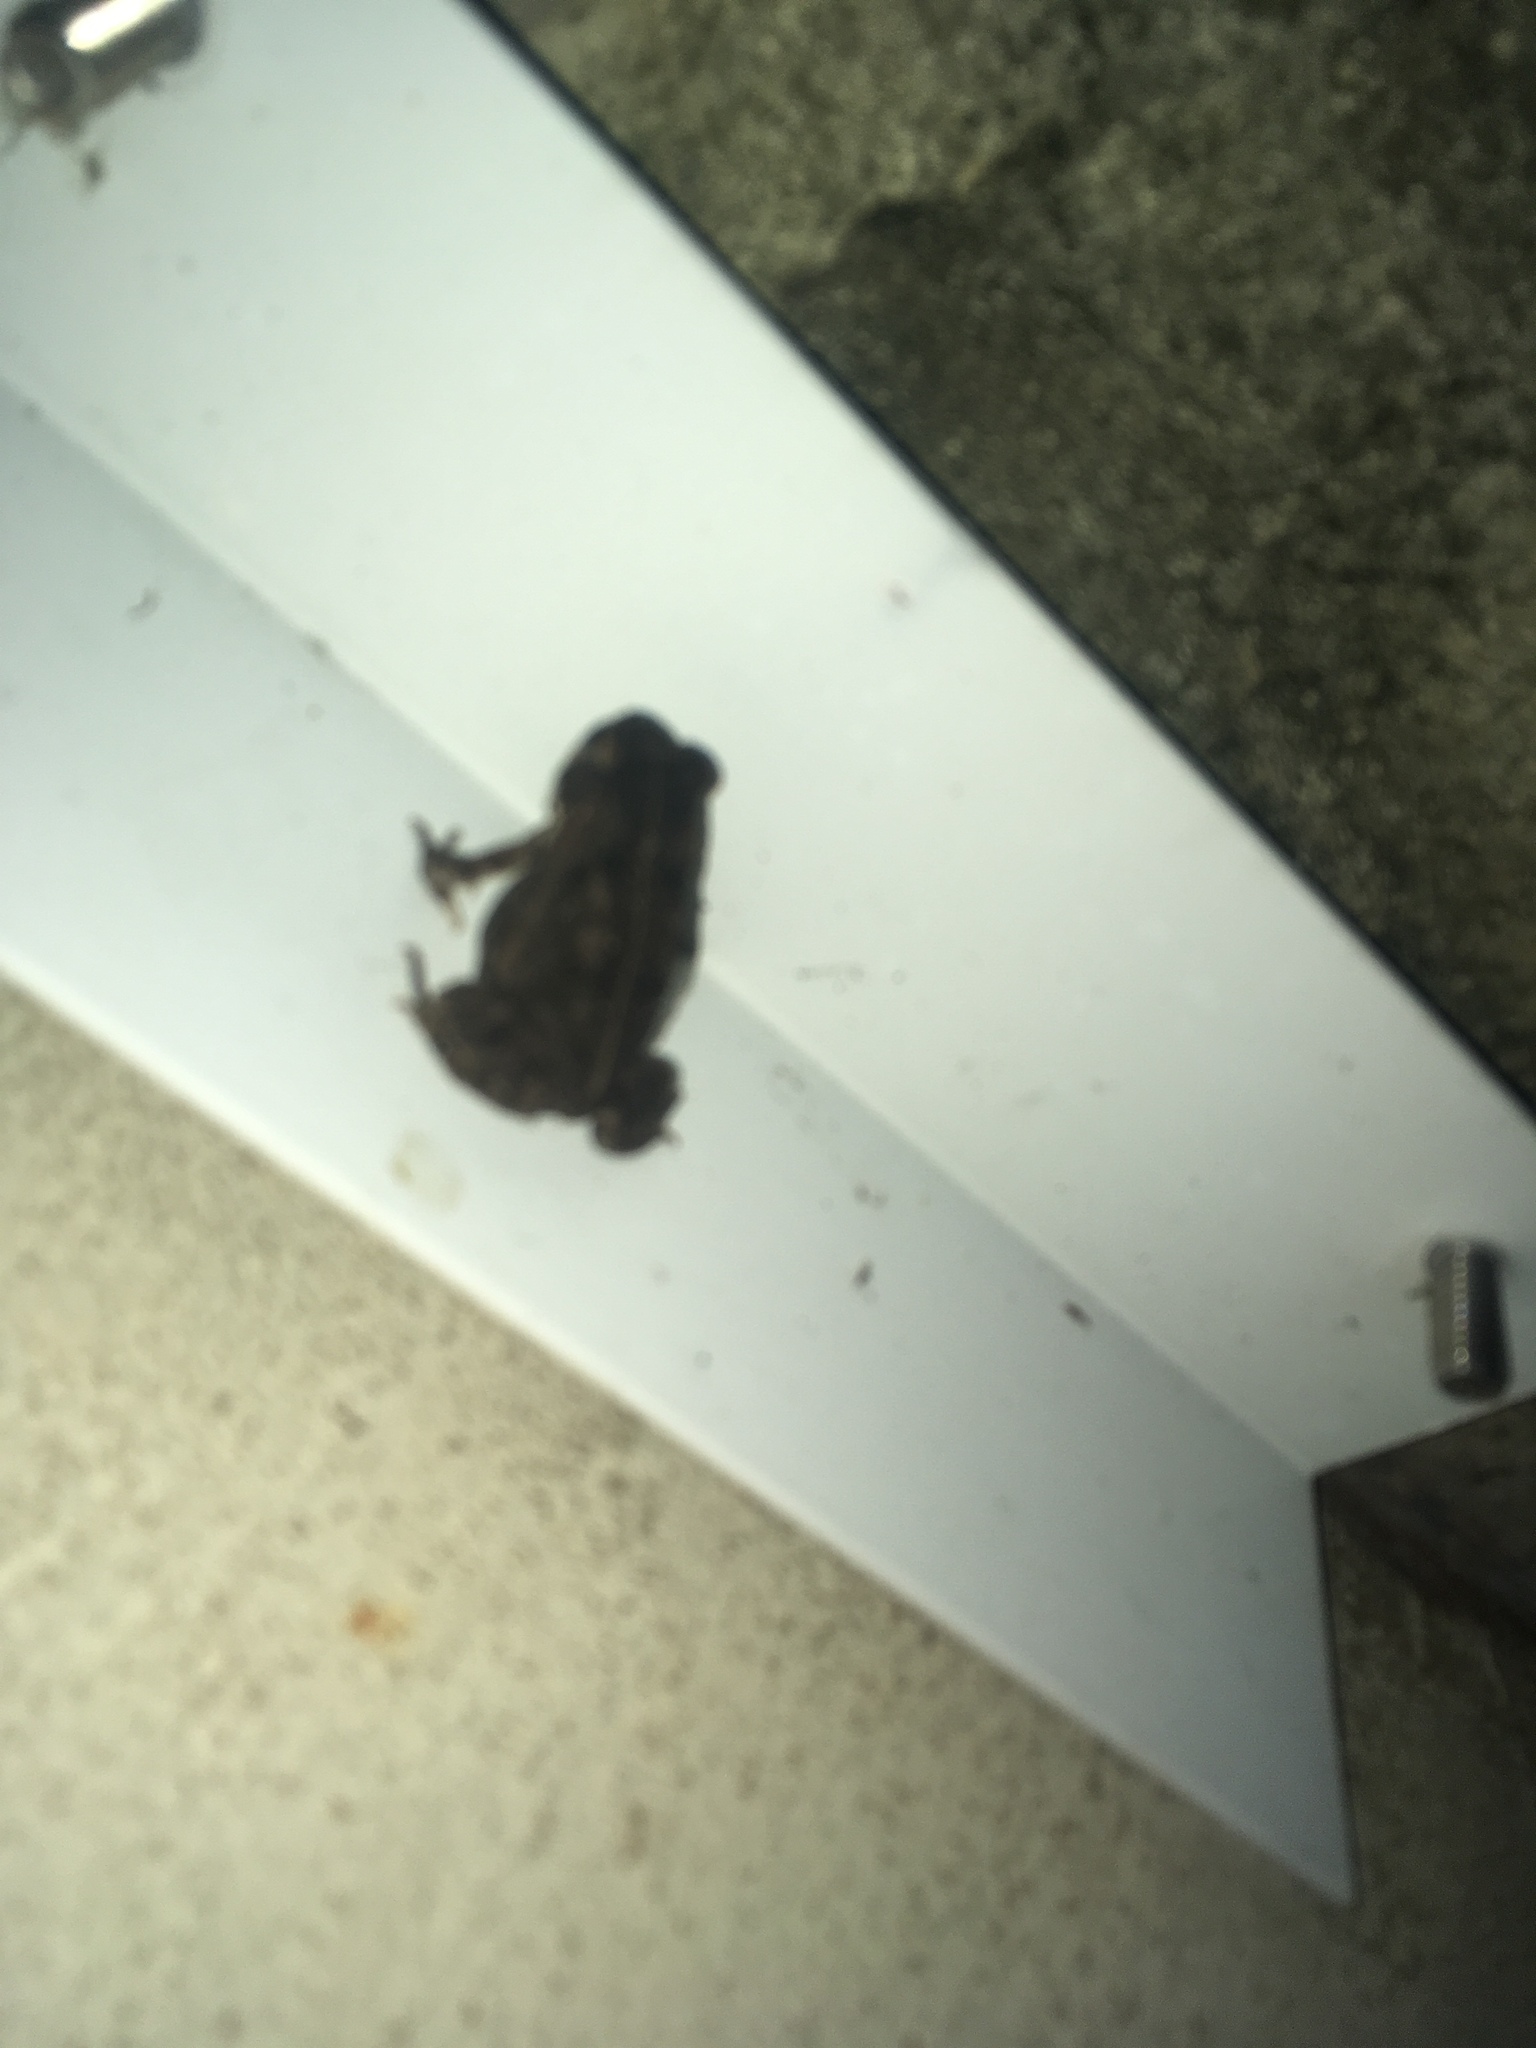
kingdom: Animalia
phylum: Chordata
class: Amphibia
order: Anura
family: Bufonidae
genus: Rhinella
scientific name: Rhinella marina
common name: Cane toad
